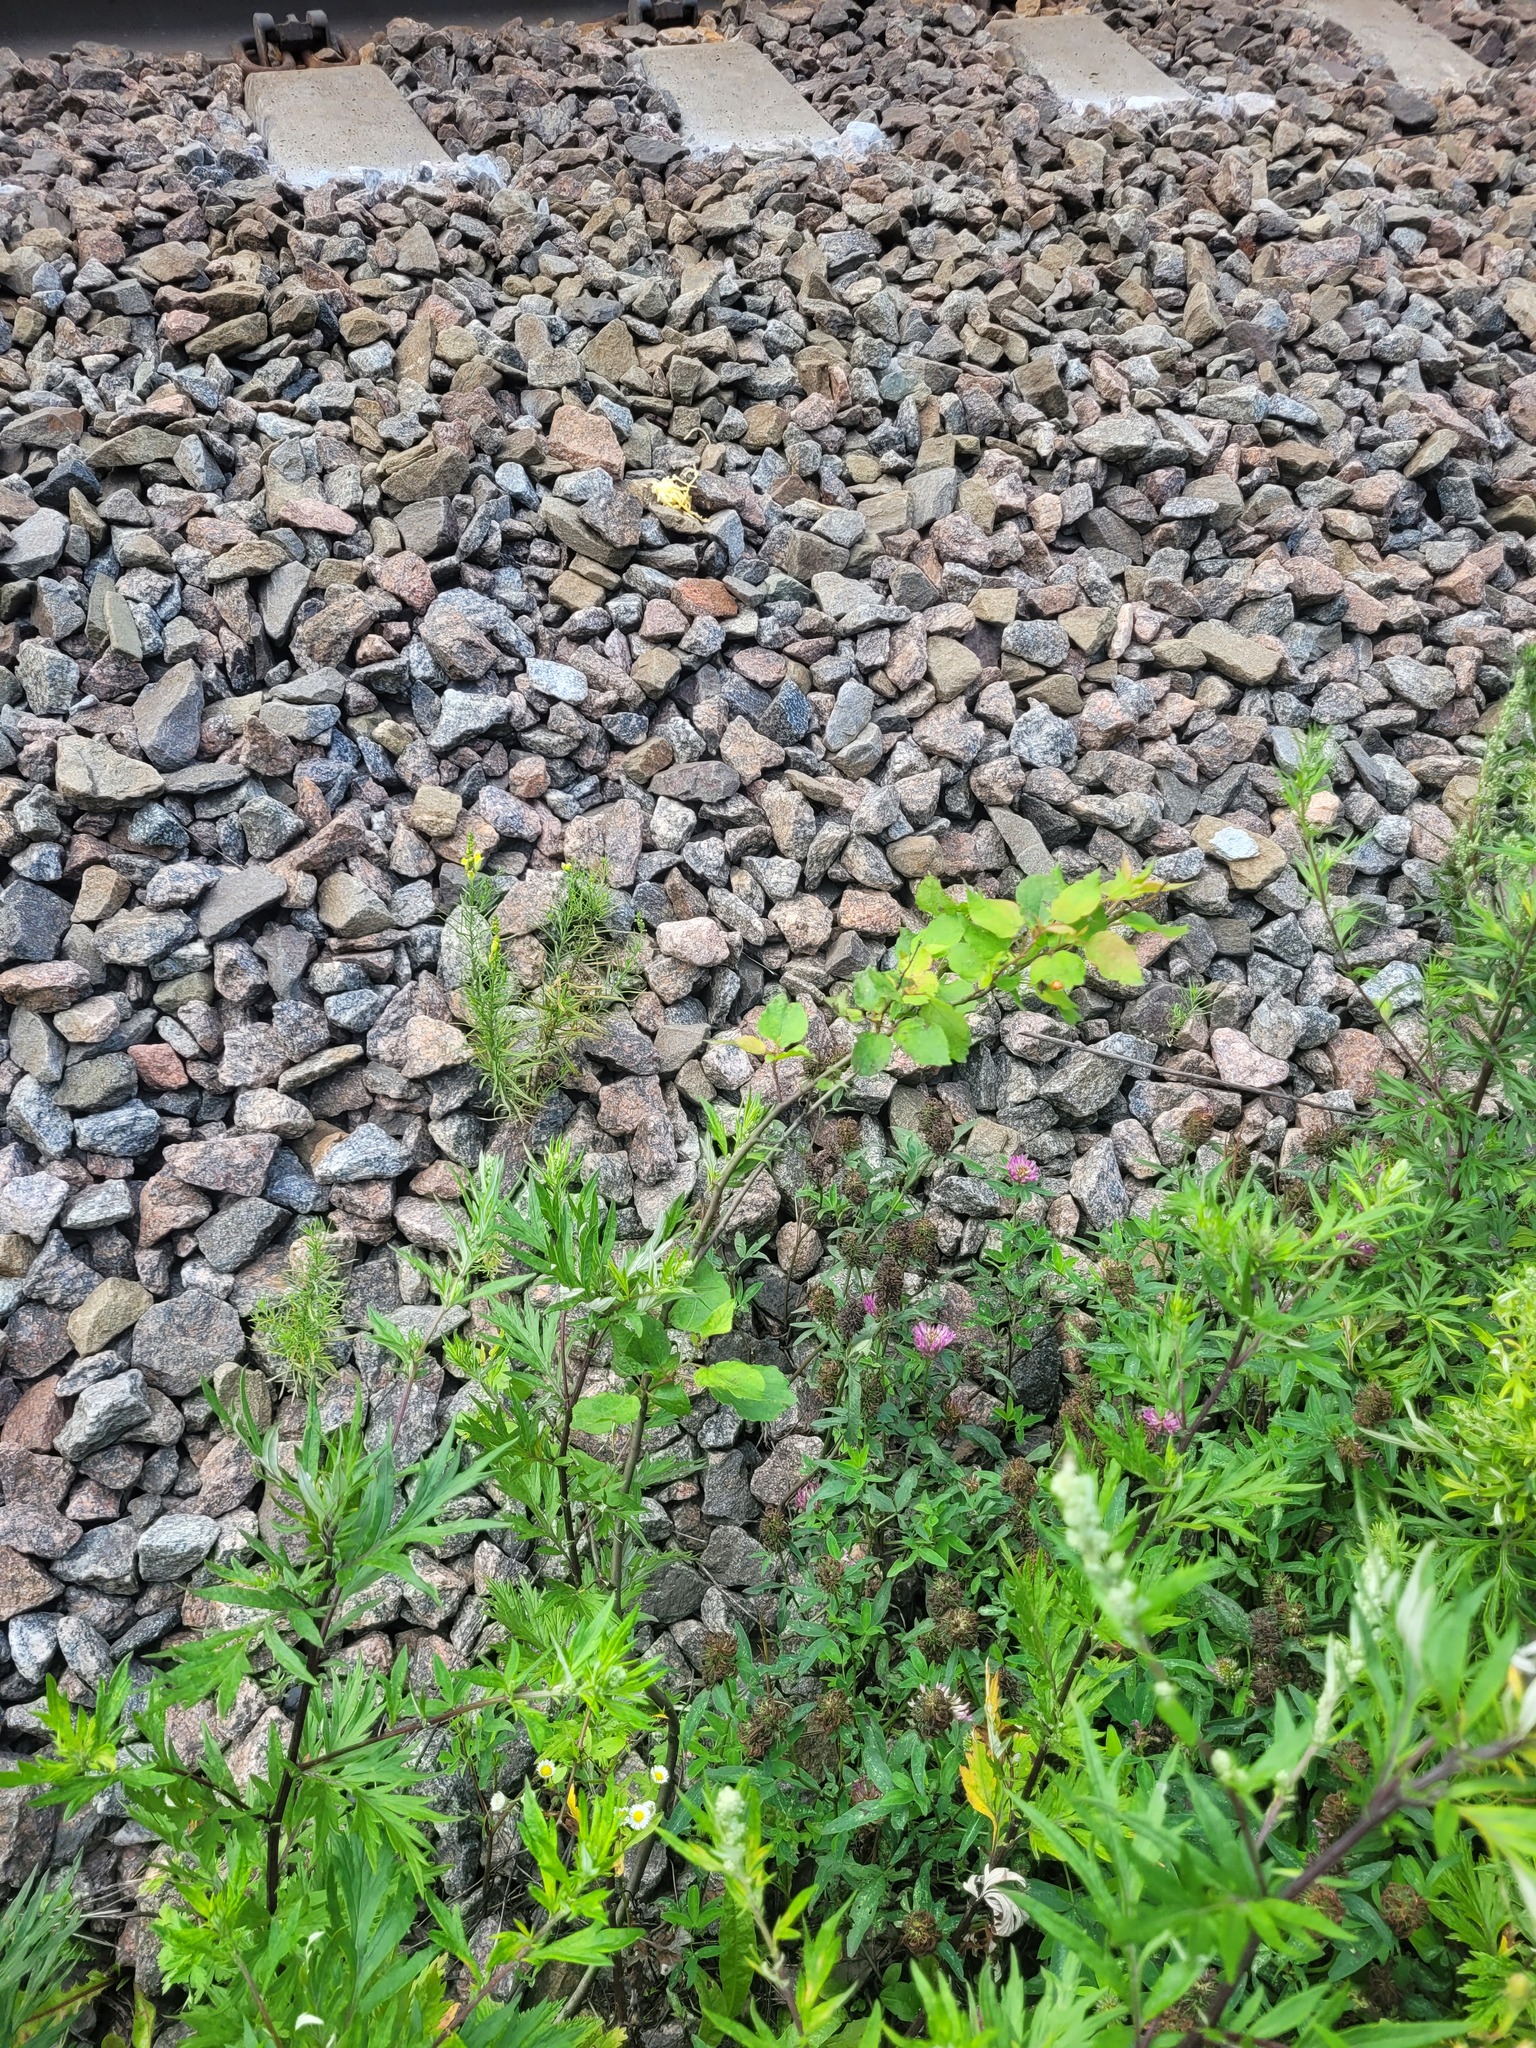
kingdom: Plantae
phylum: Tracheophyta
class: Magnoliopsida
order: Malpighiales
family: Salicaceae
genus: Populus
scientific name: Populus tremula
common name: European aspen
